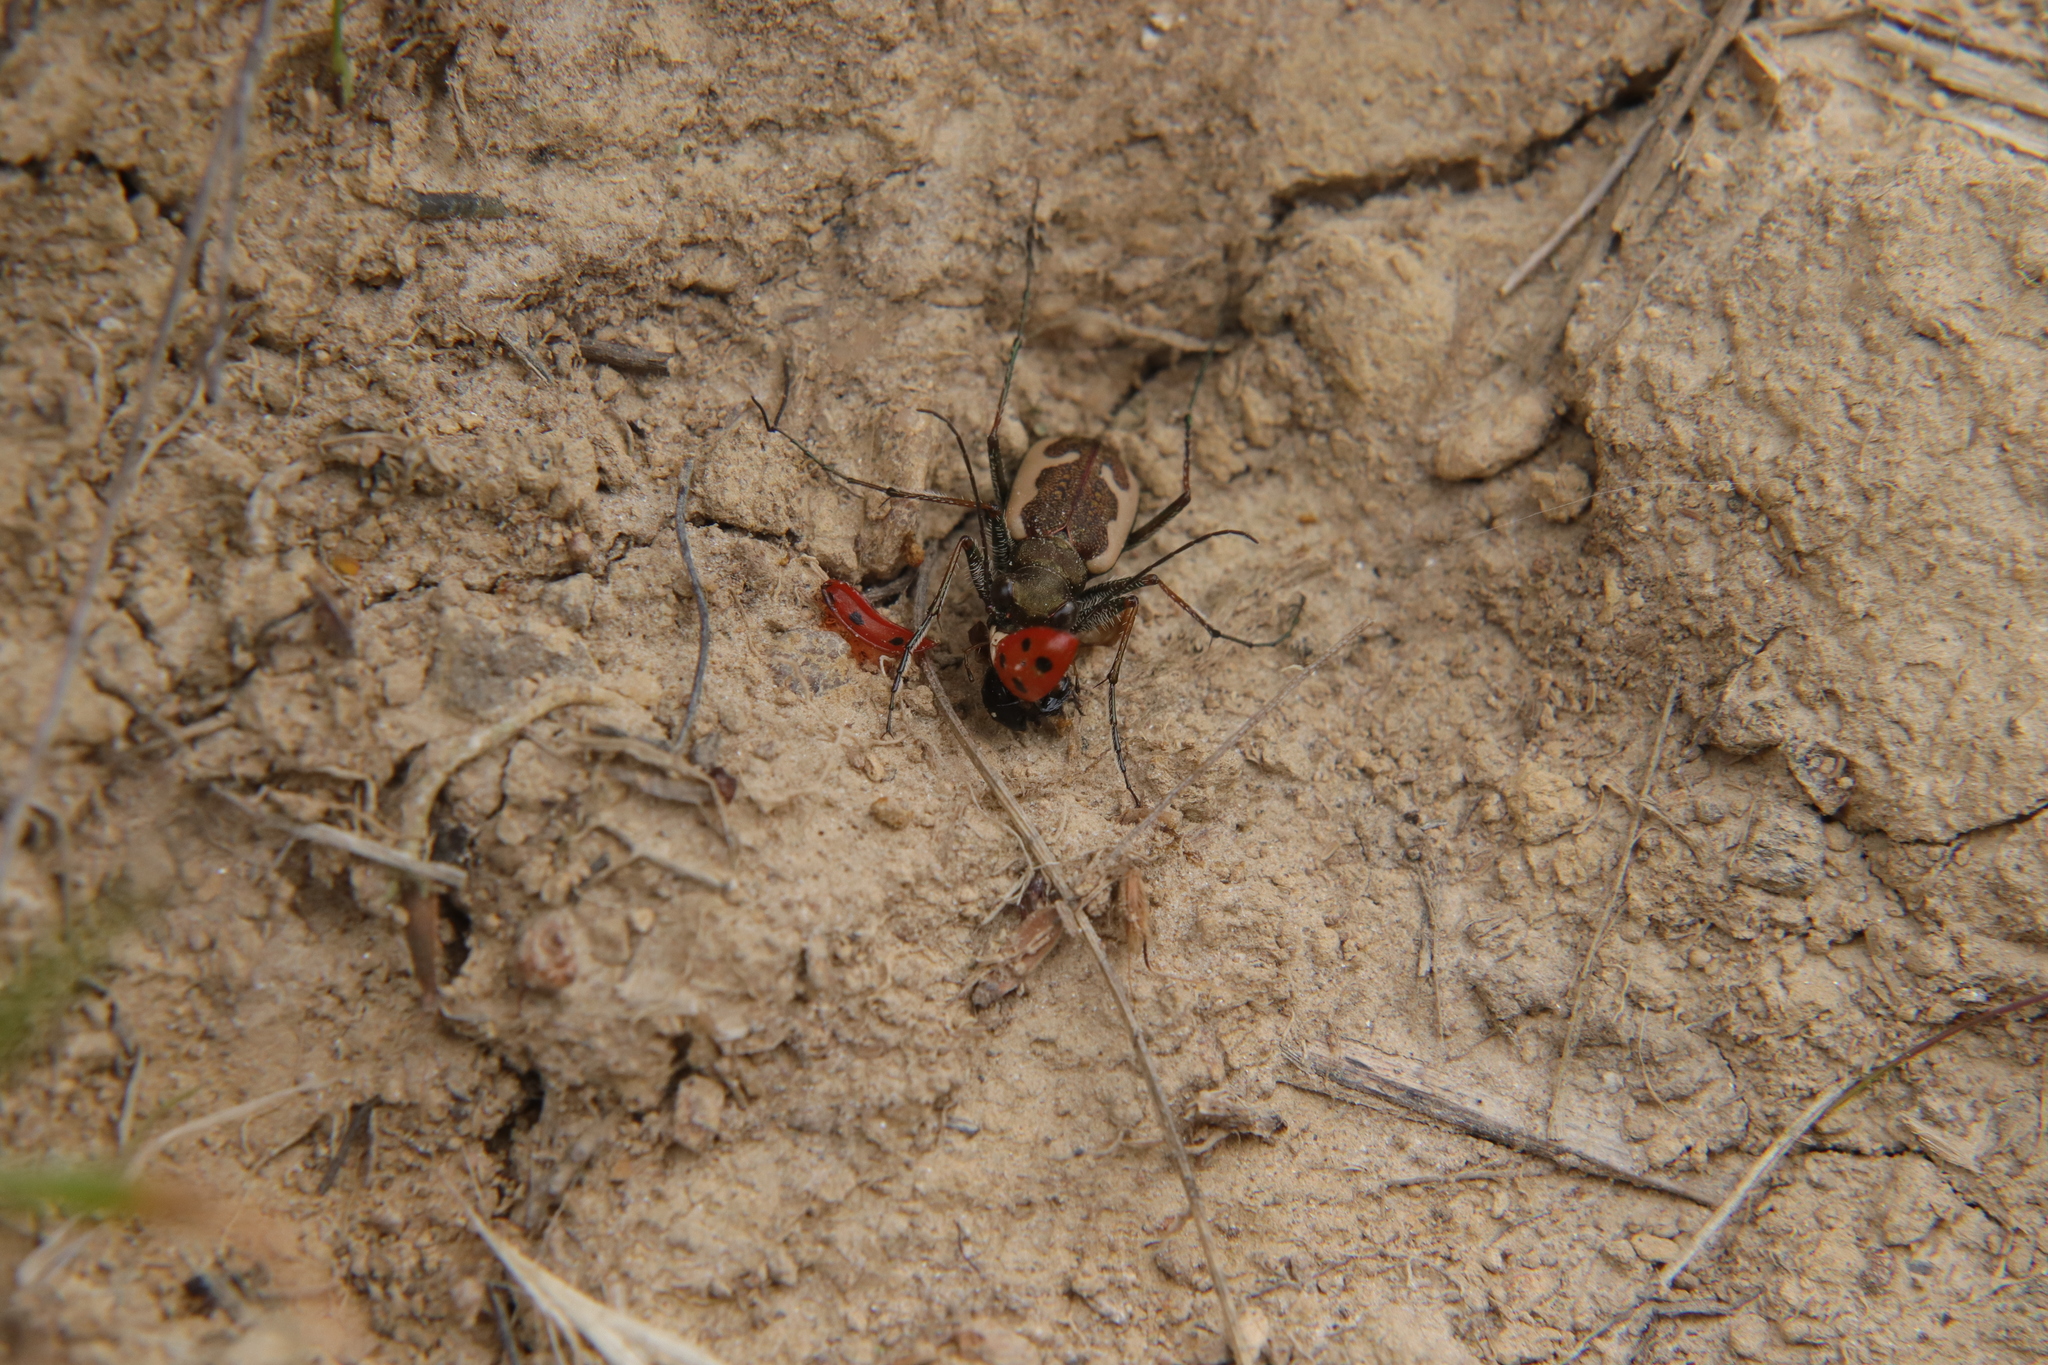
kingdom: Animalia
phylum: Arthropoda
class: Insecta
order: Coleoptera
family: Carabidae
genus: Neocicindela
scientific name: Neocicindela latecincta
